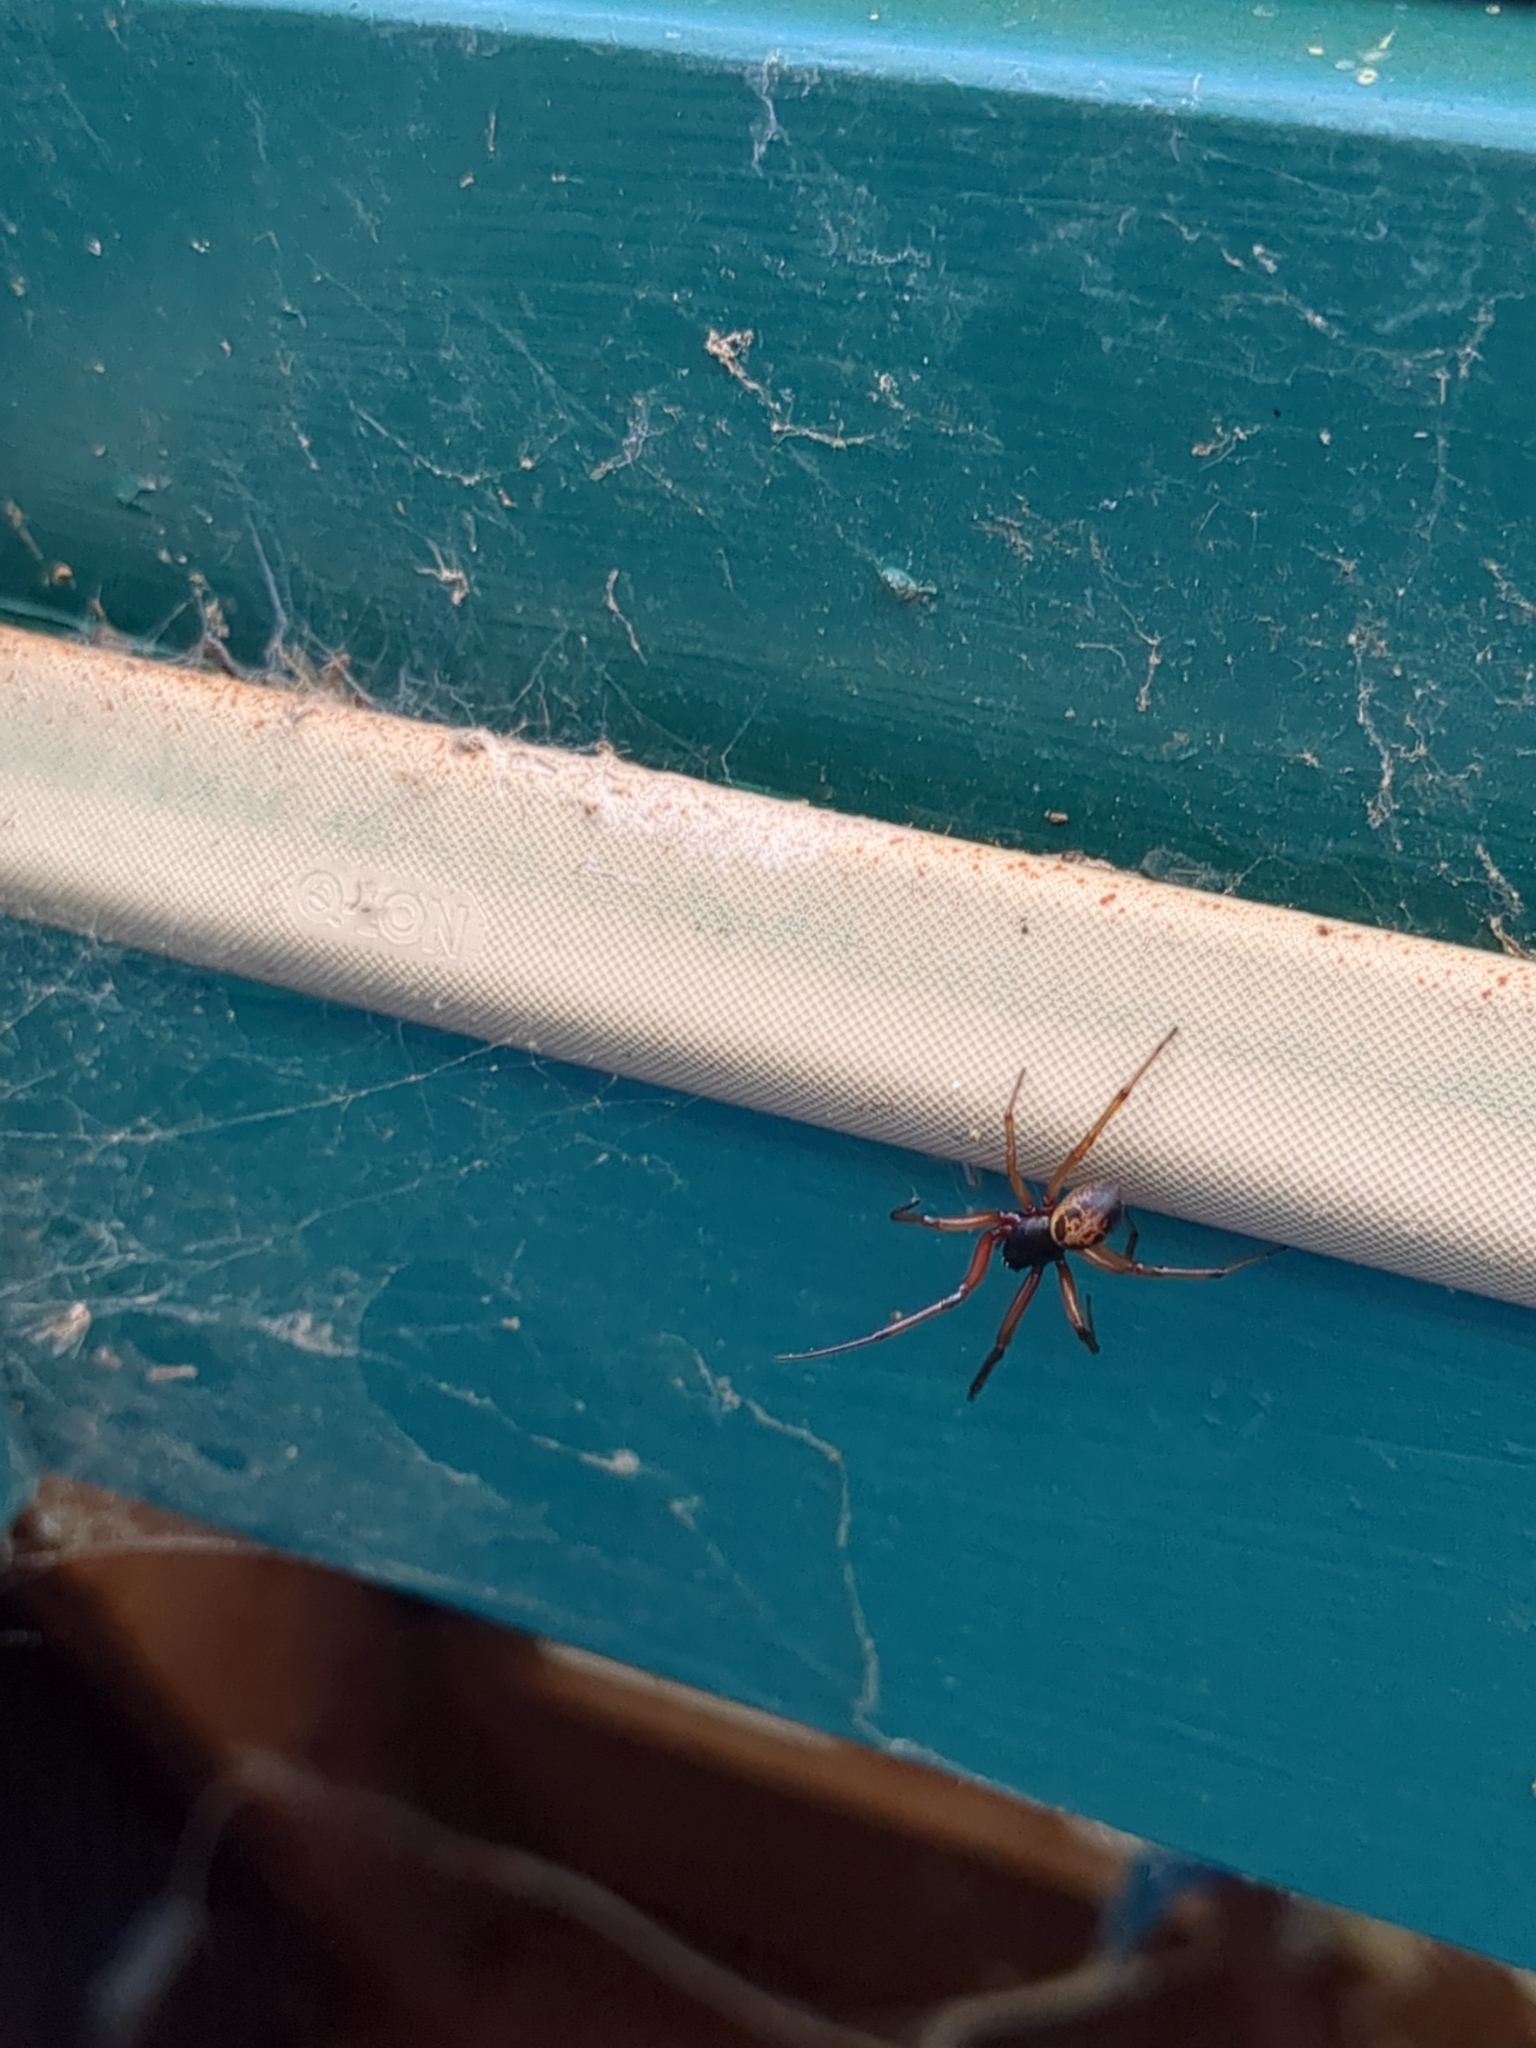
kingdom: Animalia
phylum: Arthropoda
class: Arachnida
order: Araneae
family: Theridiidae
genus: Steatoda
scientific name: Steatoda nobilis
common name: Cobweb weaver
